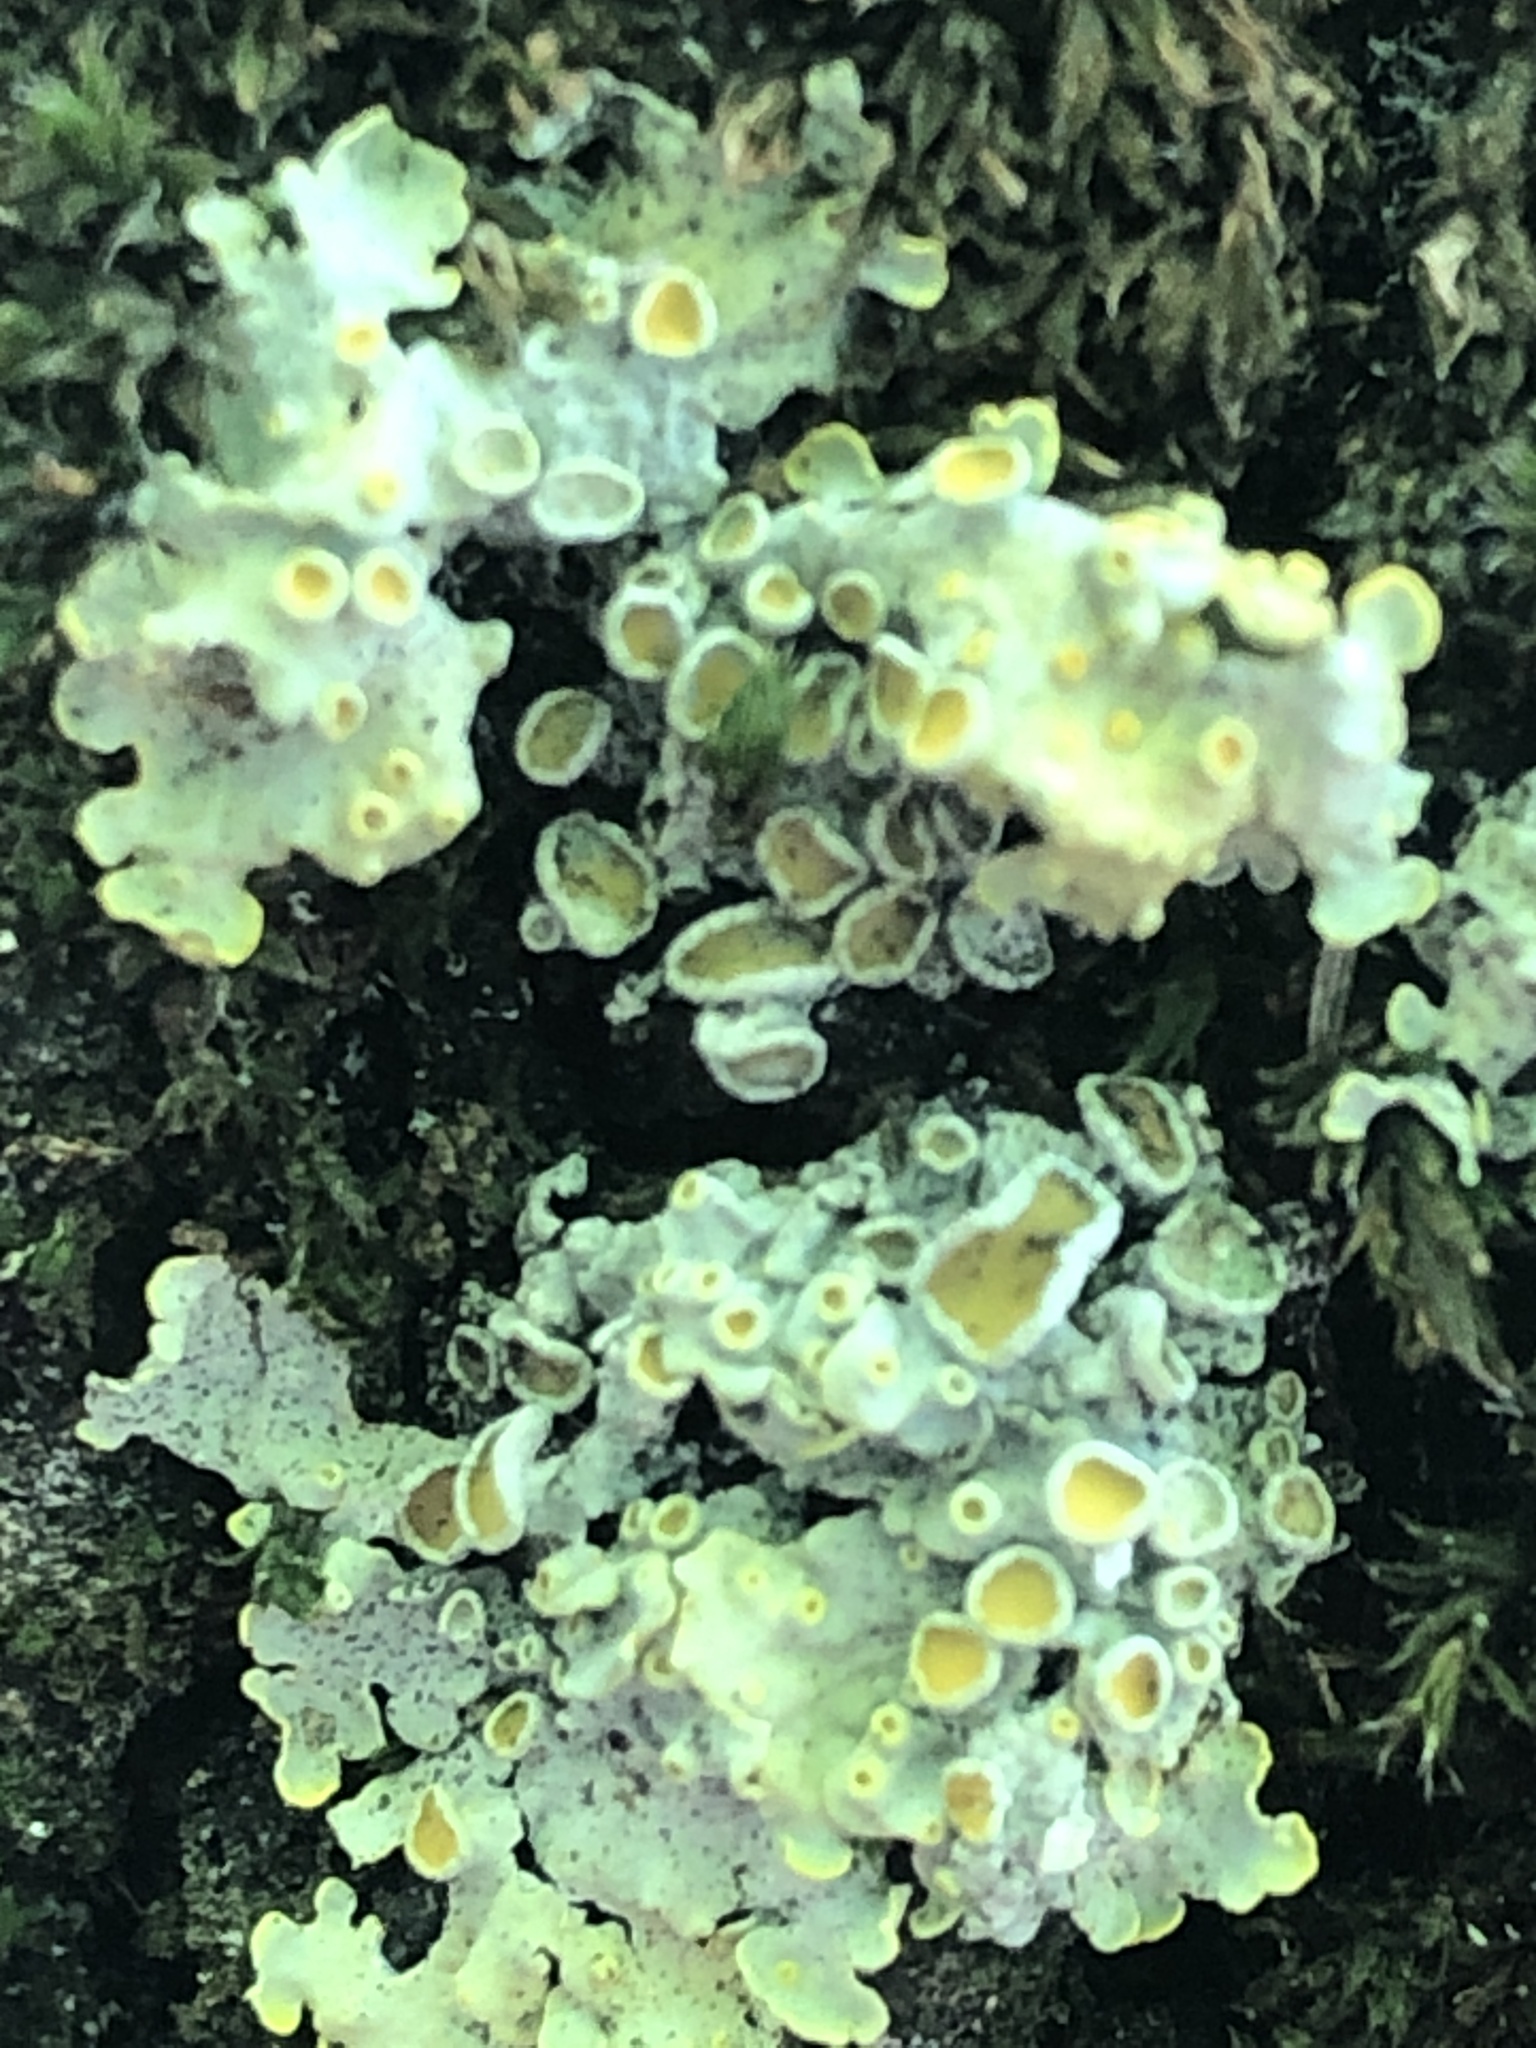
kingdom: Fungi
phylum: Ascomycota
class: Lecanoromycetes
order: Teloschistales
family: Teloschistaceae
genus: Xanthoria
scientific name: Xanthoria parietina
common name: Common orange lichen
